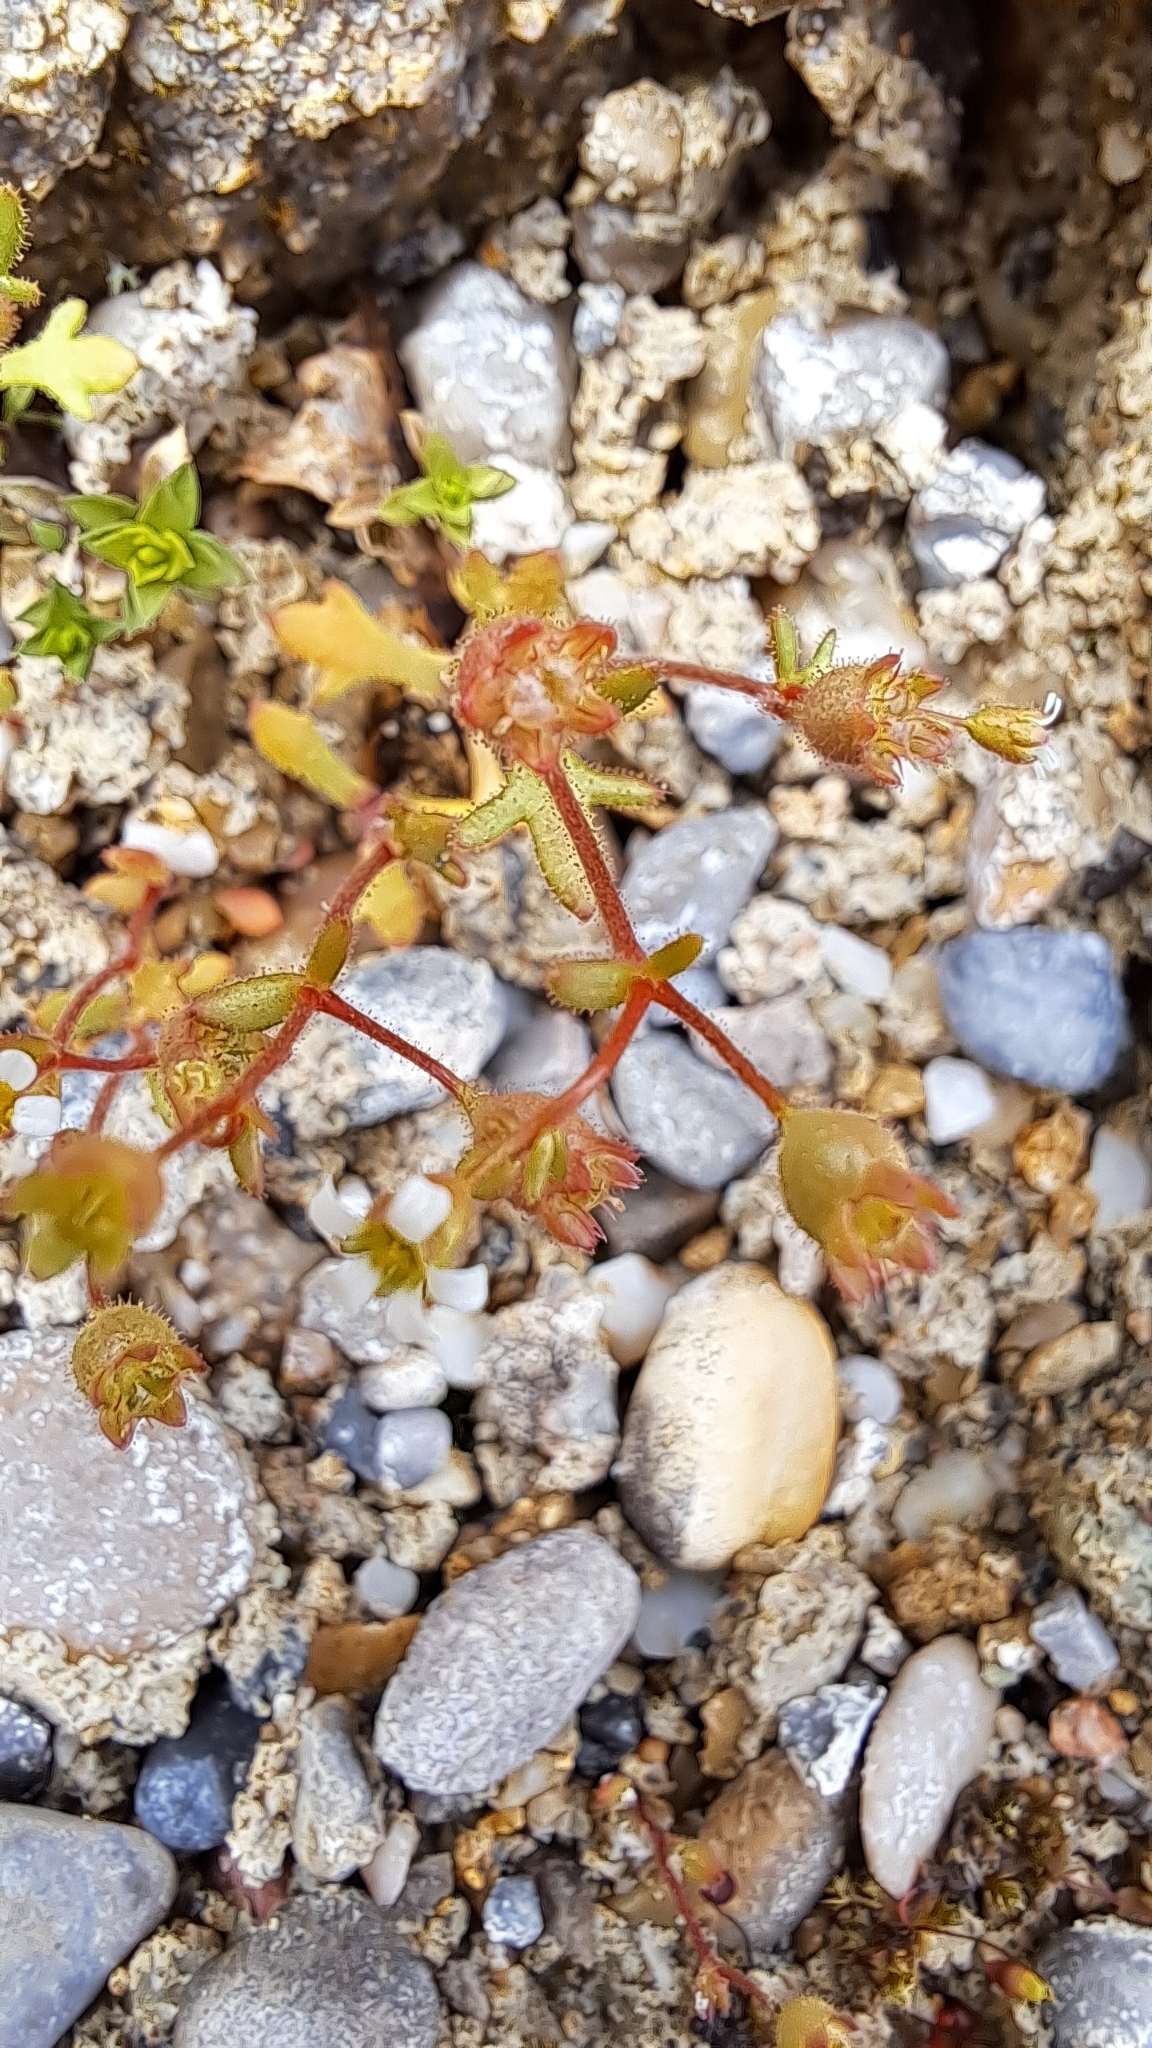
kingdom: Plantae
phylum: Tracheophyta
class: Magnoliopsida
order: Saxifragales
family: Saxifragaceae
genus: Saxifraga
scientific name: Saxifraga tridactylites
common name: Rue-leaved saxifrage
